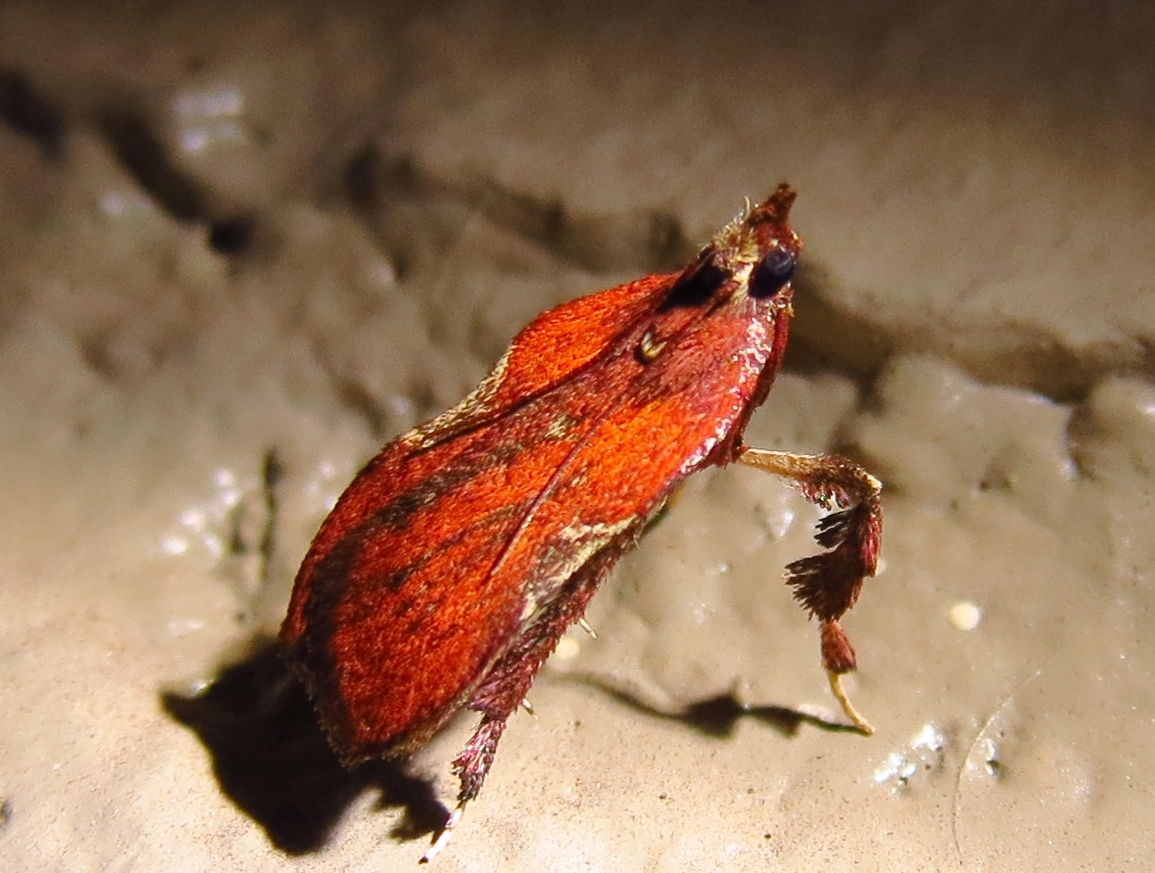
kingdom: Animalia
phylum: Arthropoda
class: Insecta
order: Lepidoptera
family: Pyralidae
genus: Galasa
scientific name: Galasa nigrinodis
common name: Boxwood leaftier moth
